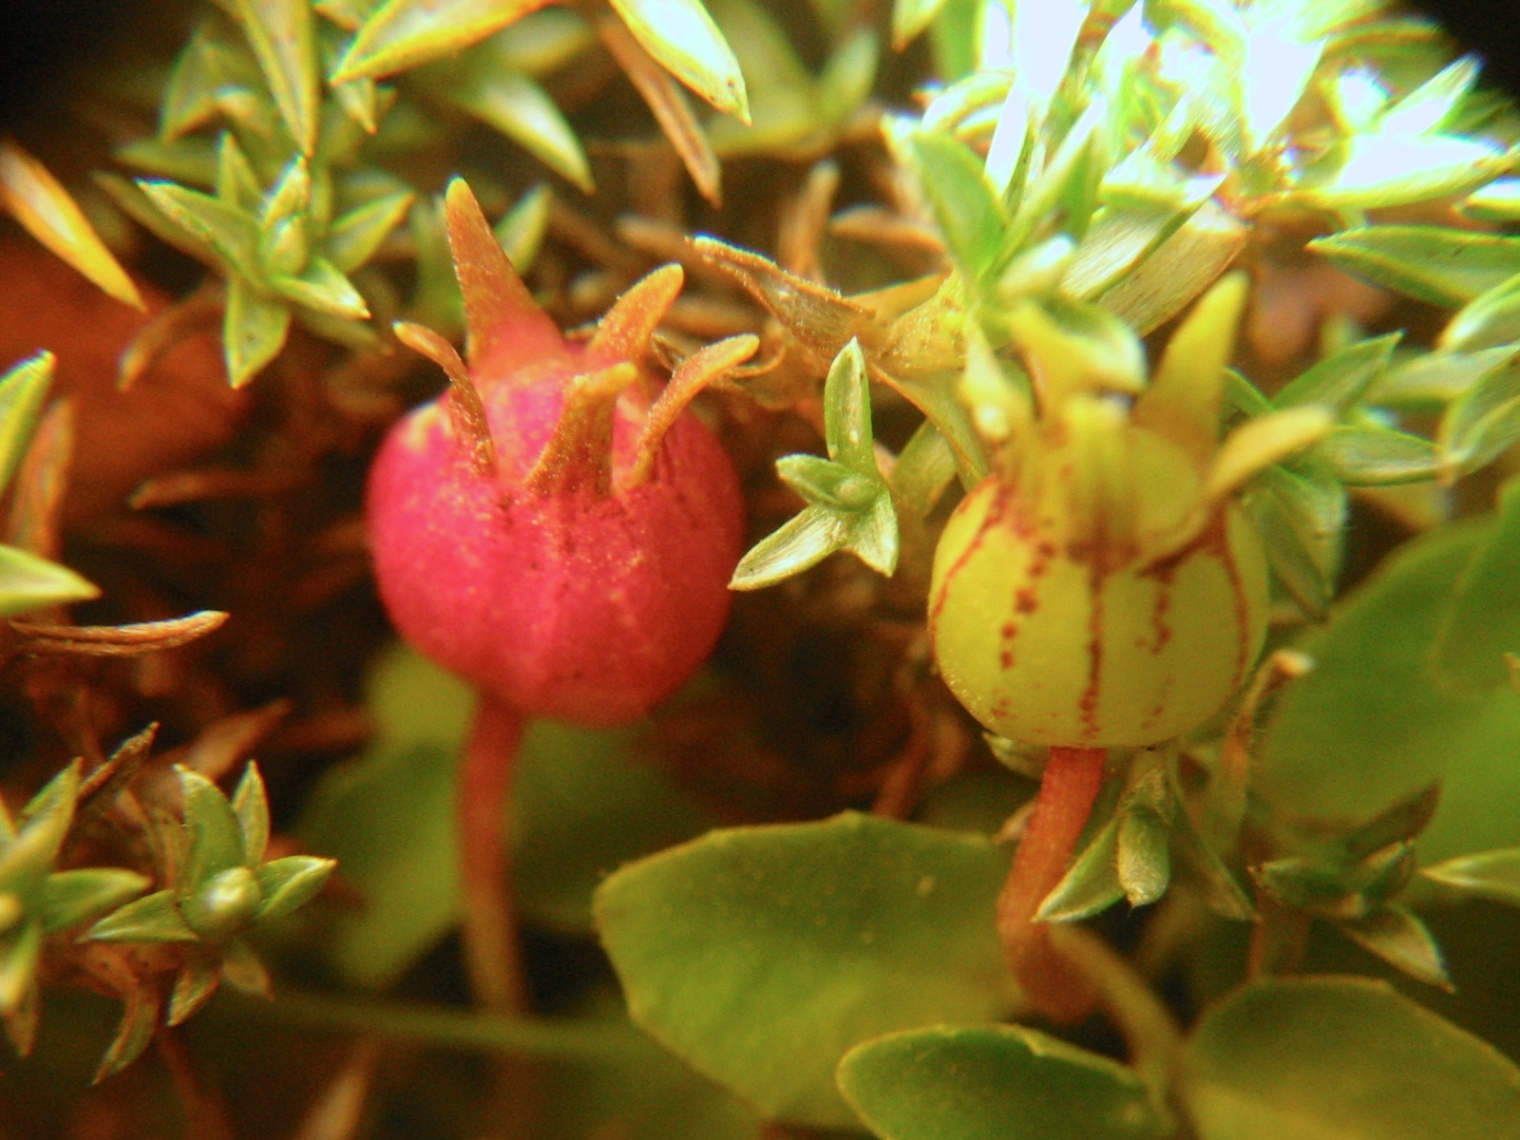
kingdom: Plantae
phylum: Tracheophyta
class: Magnoliopsida
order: Asterales
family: Campanulaceae
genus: Lobelia
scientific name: Lobelia angulata
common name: Lawn lobelia
